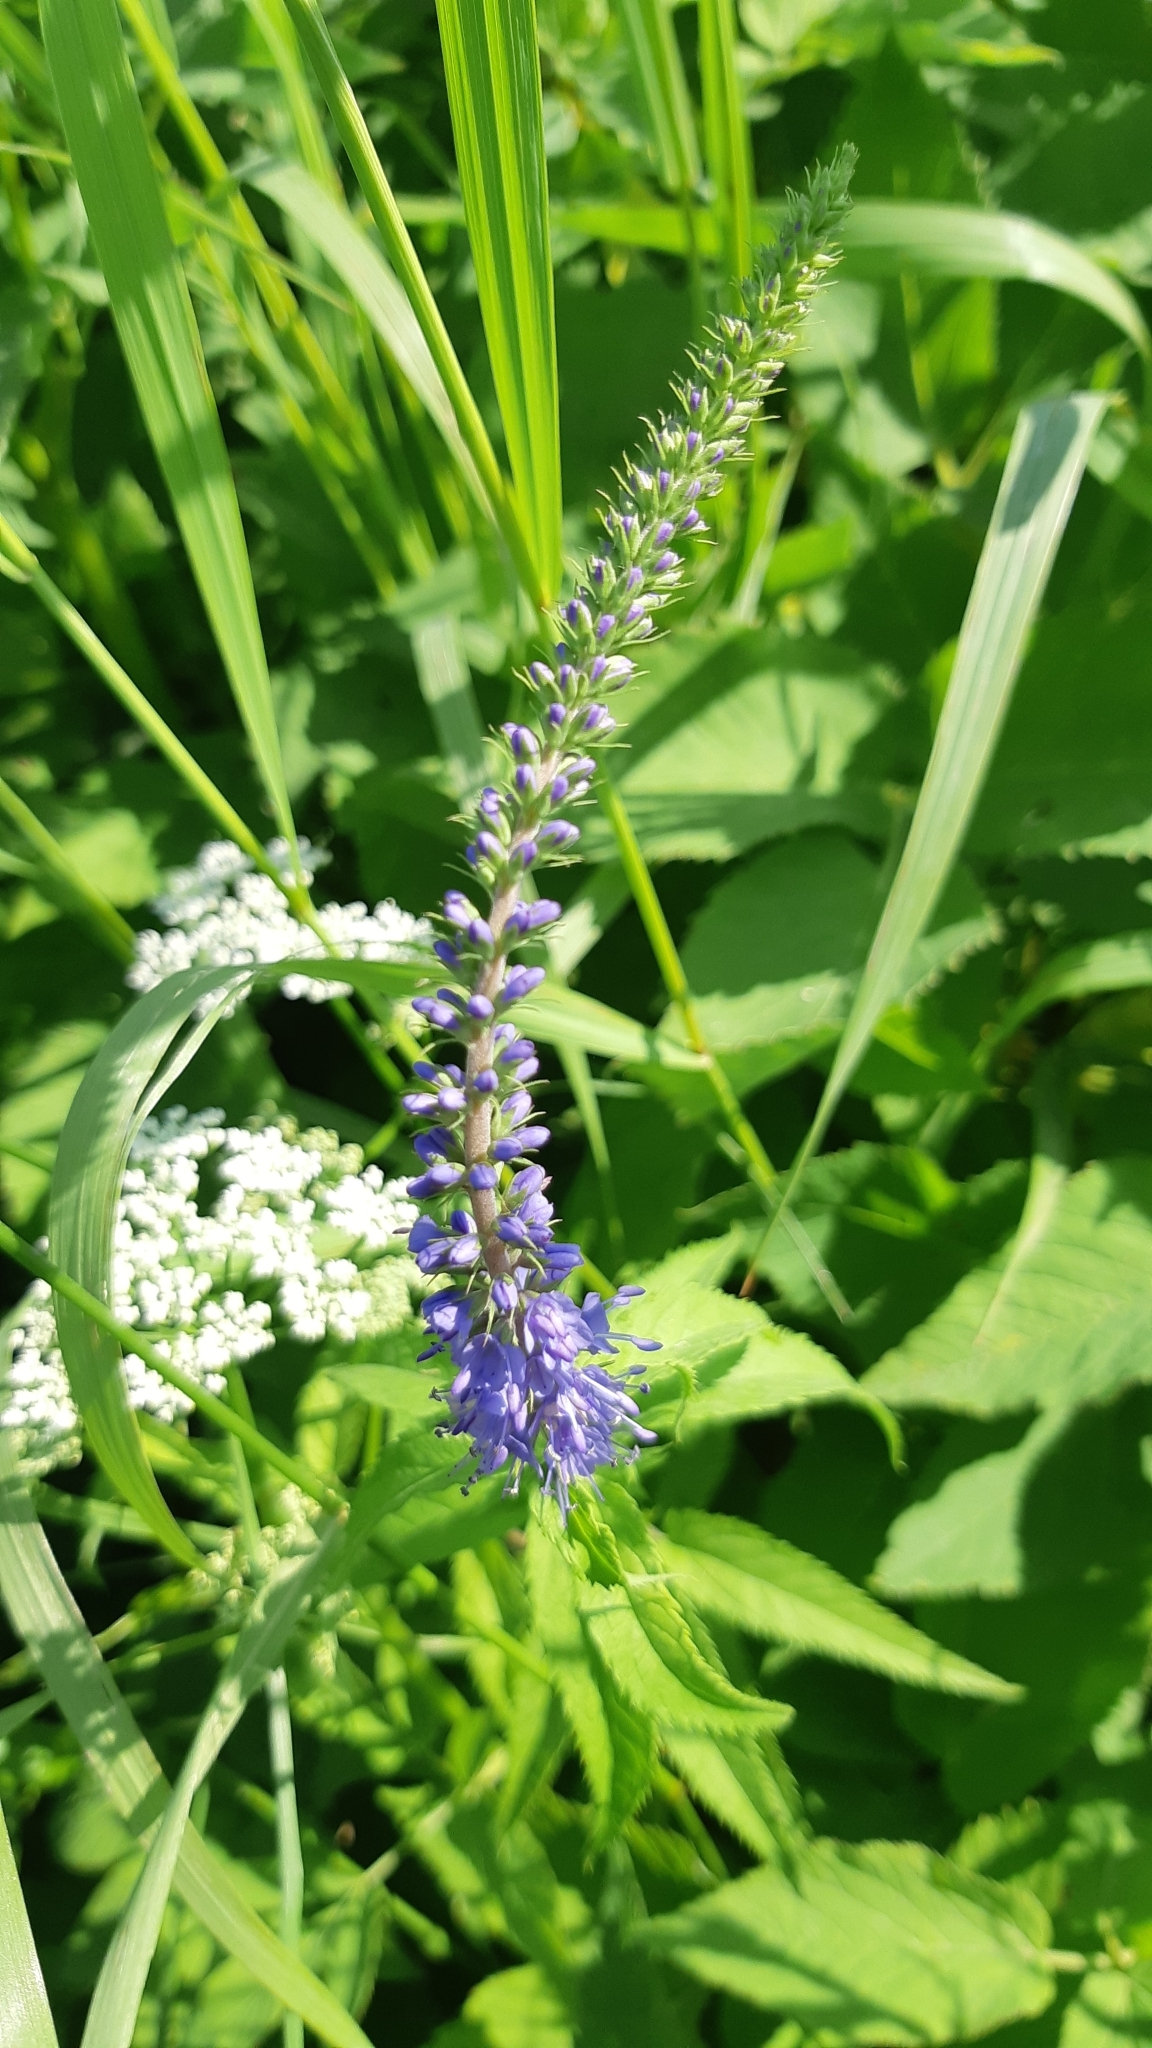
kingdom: Plantae
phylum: Tracheophyta
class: Magnoliopsida
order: Lamiales
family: Plantaginaceae
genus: Veronica
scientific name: Veronica longifolia
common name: Garden speedwell
